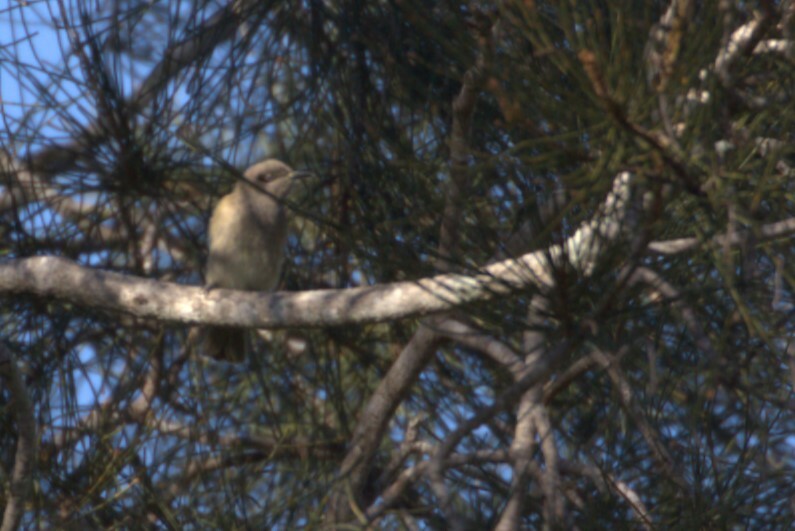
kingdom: Animalia
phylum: Chordata
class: Aves
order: Passeriformes
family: Meliphagidae
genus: Lichmera
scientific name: Lichmera indistincta
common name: Brown honeyeater
